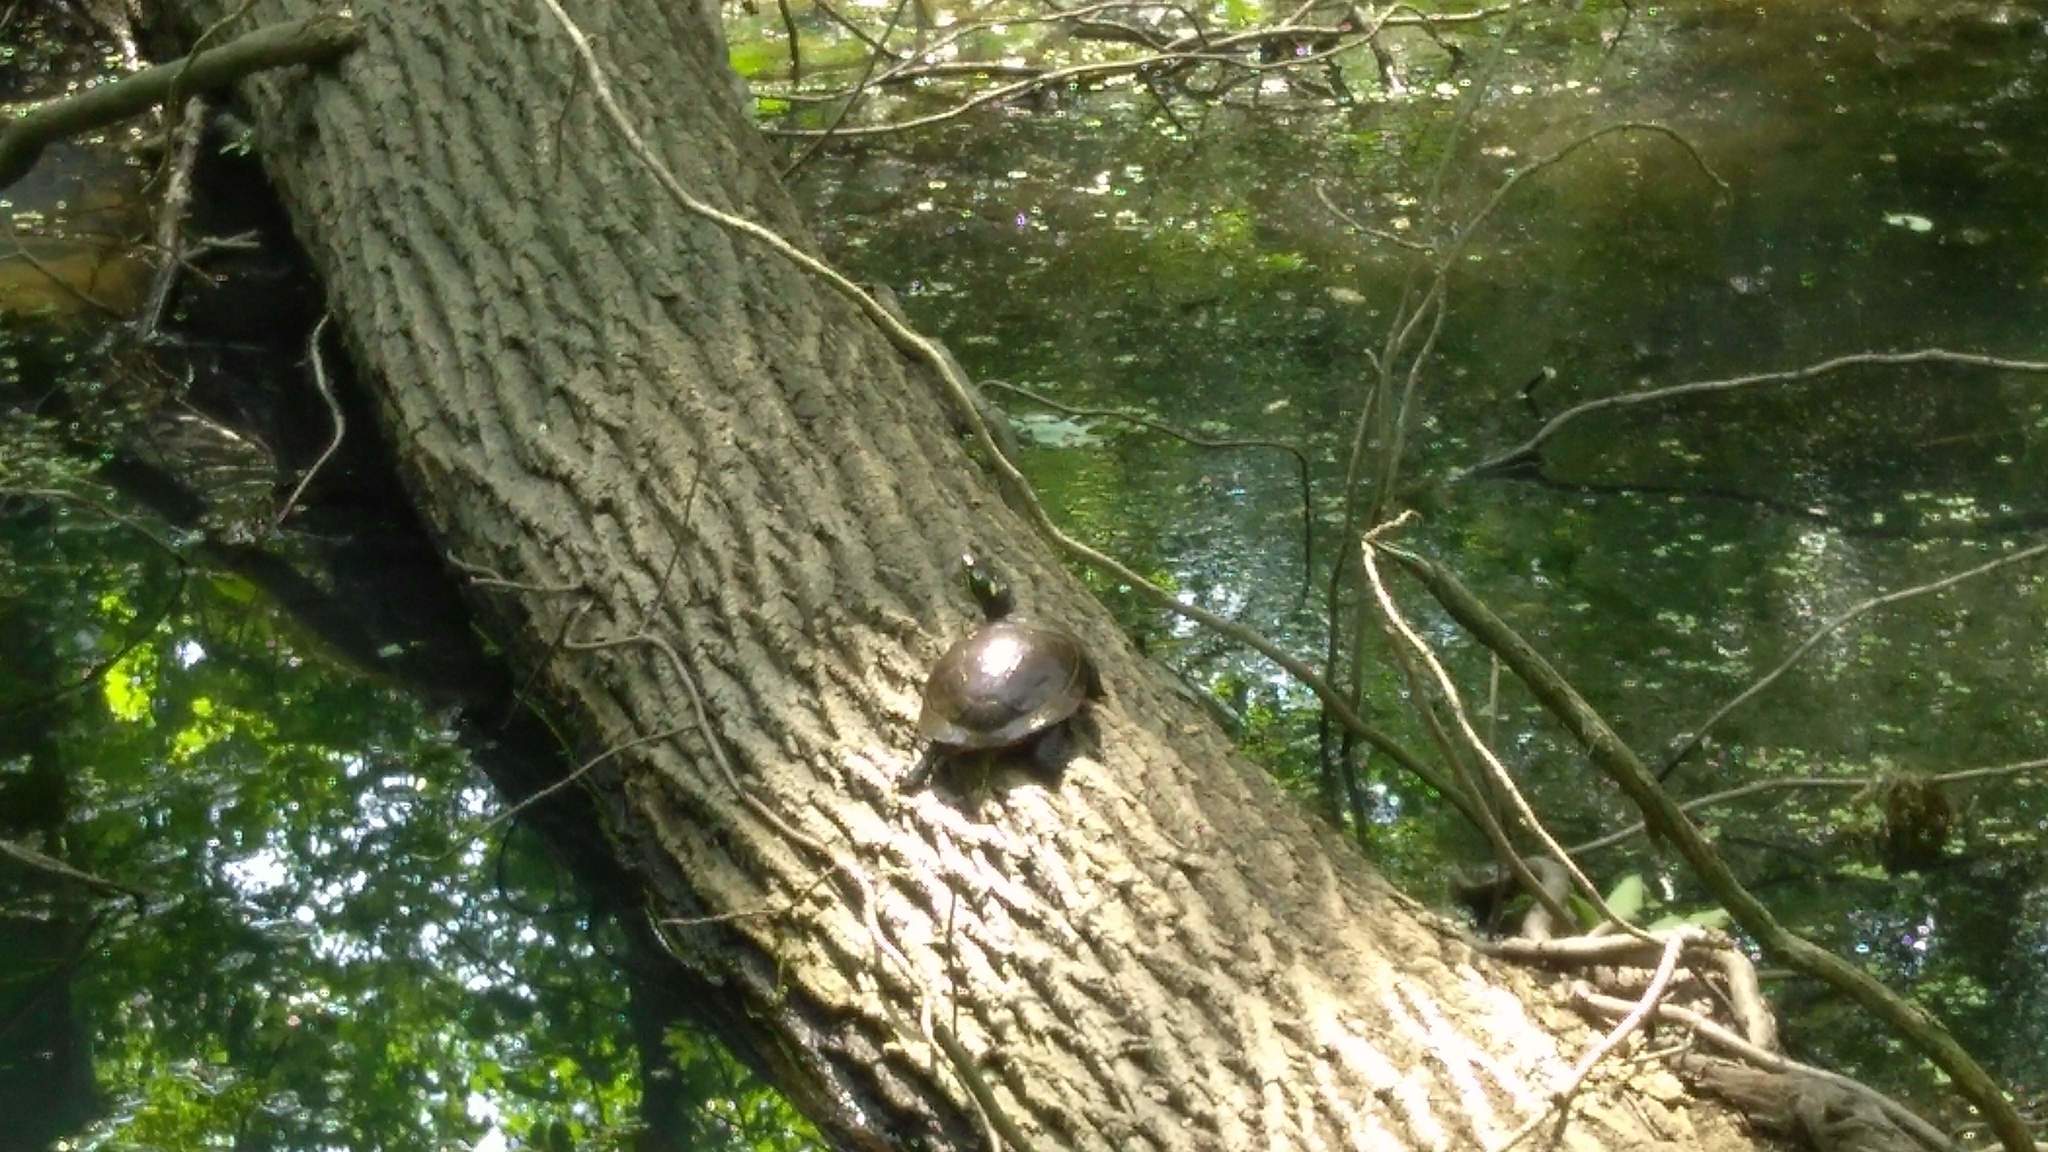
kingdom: Animalia
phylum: Chordata
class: Testudines
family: Emydidae
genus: Chrysemys
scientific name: Chrysemys picta
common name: Painted turtle
